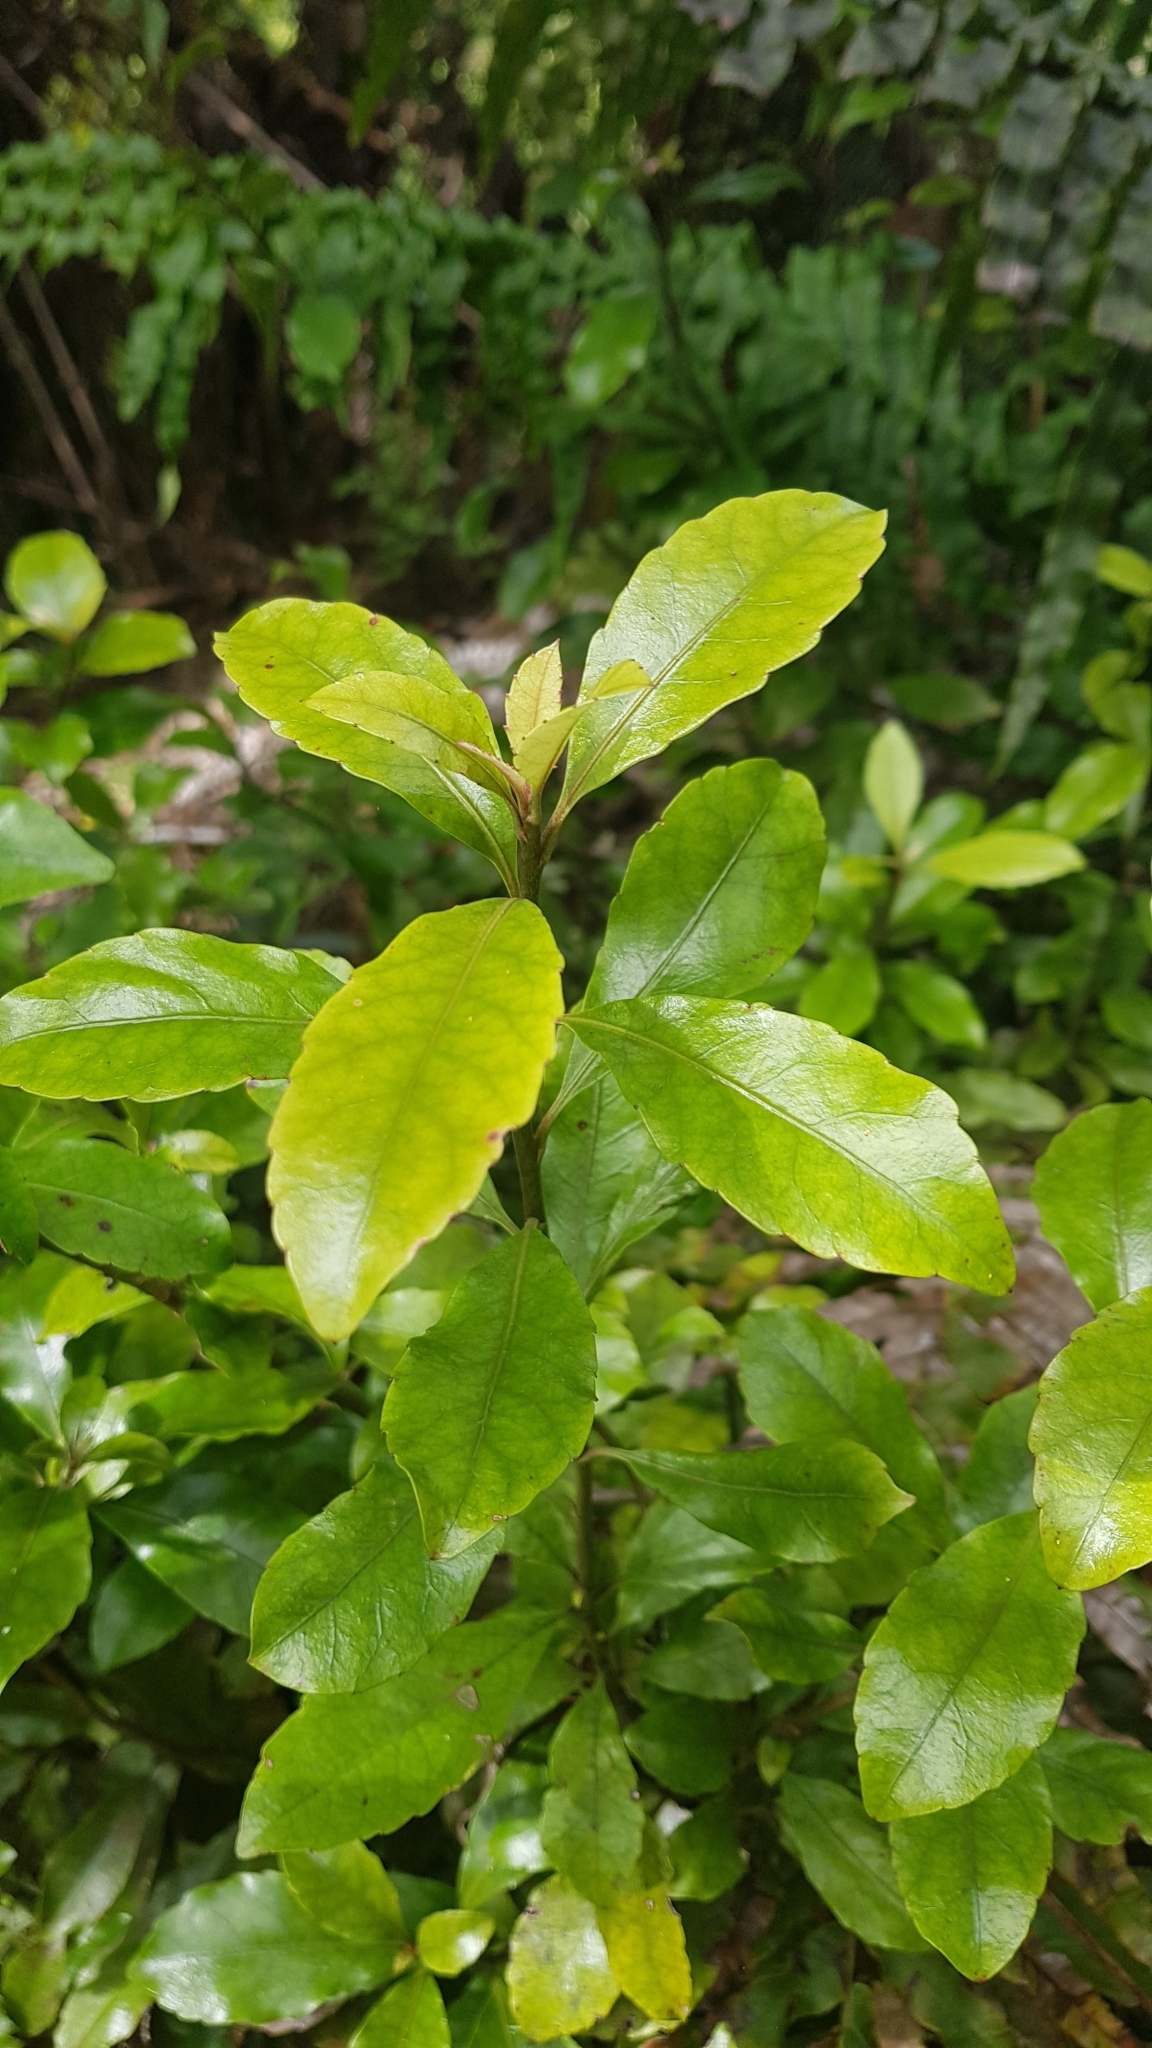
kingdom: Plantae
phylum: Tracheophyta
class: Magnoliopsida
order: Asterales
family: Alseuosmiaceae
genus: Alseuosmia
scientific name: Alseuosmia macrophylla
